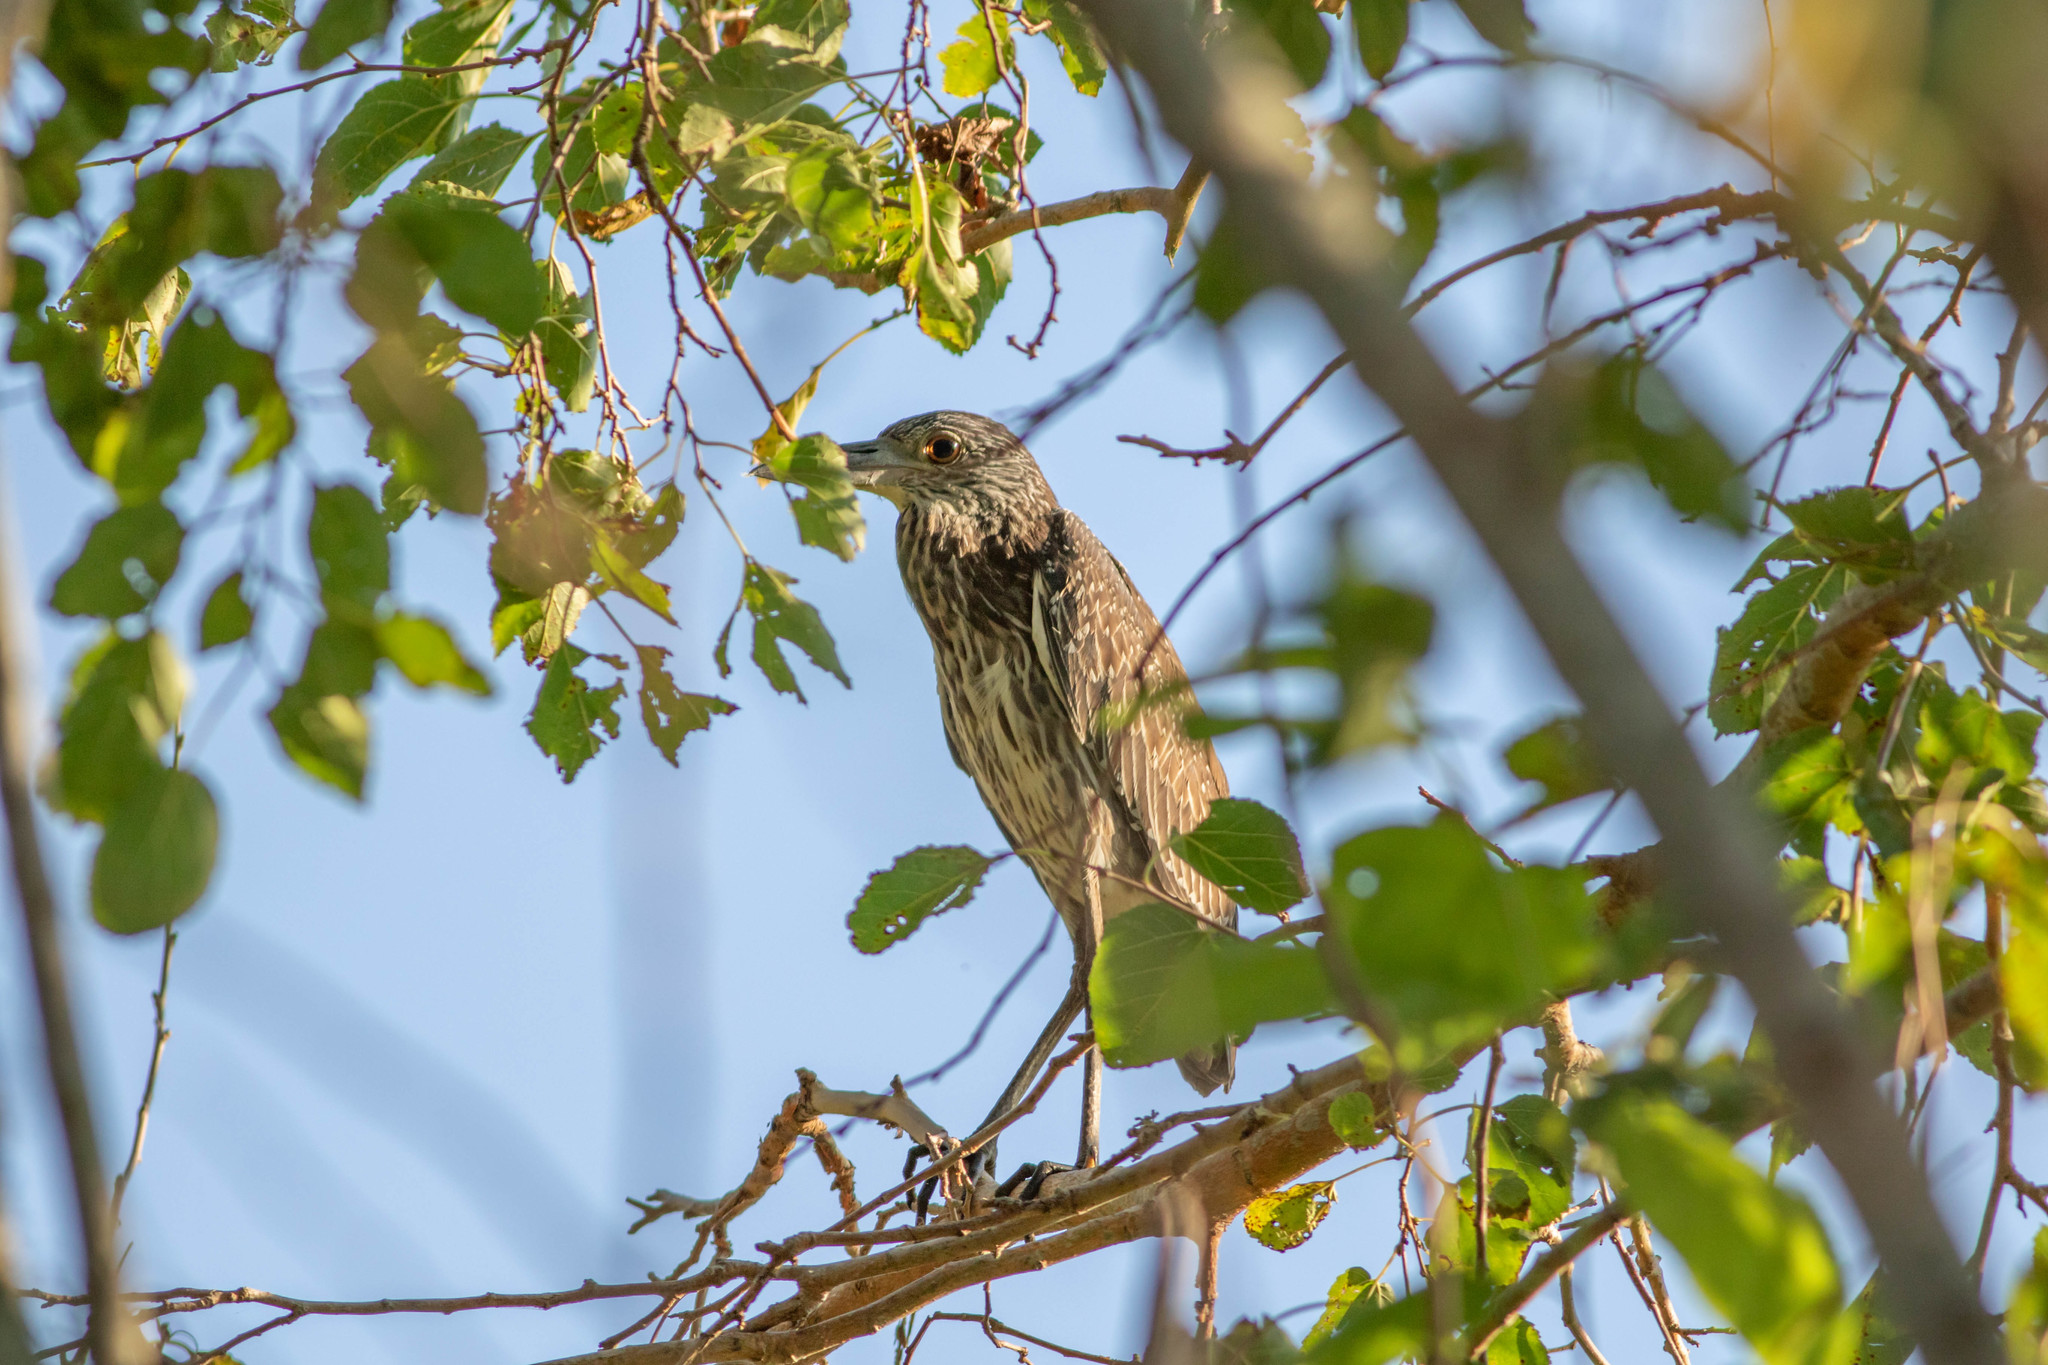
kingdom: Animalia
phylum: Chordata
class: Aves
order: Pelecaniformes
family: Ardeidae
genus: Nyctanassa
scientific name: Nyctanassa violacea
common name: Yellow-crowned night heron
